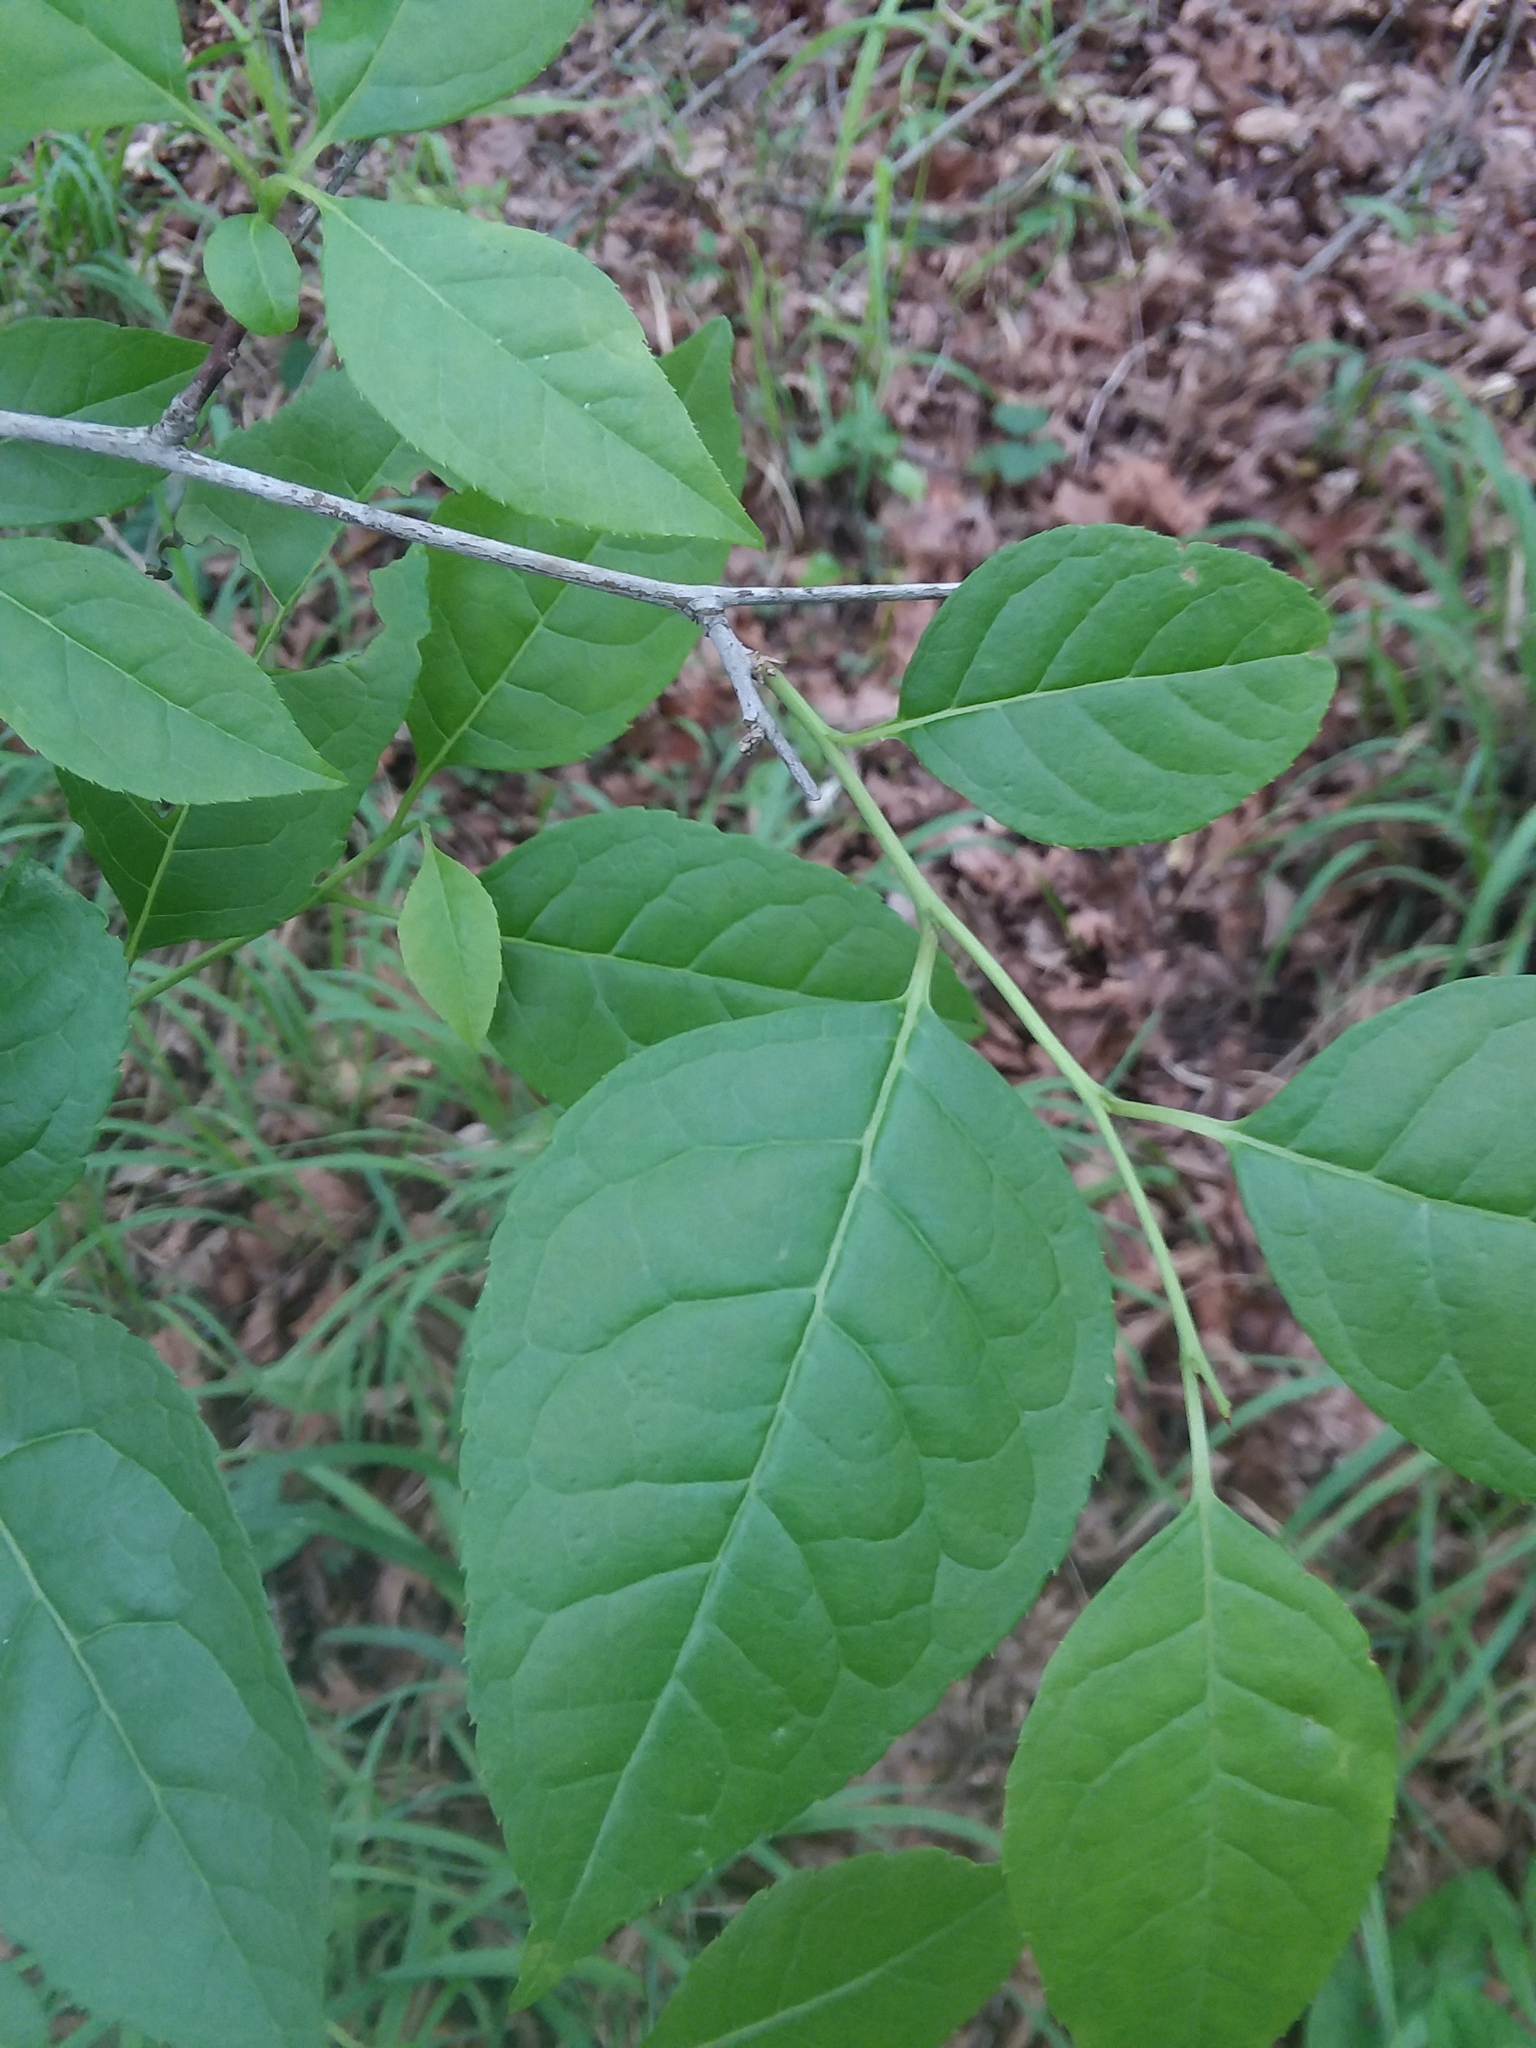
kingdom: Plantae
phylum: Tracheophyta
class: Magnoliopsida
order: Aquifoliales
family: Aquifoliaceae
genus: Ilex
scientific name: Ilex ambigua
